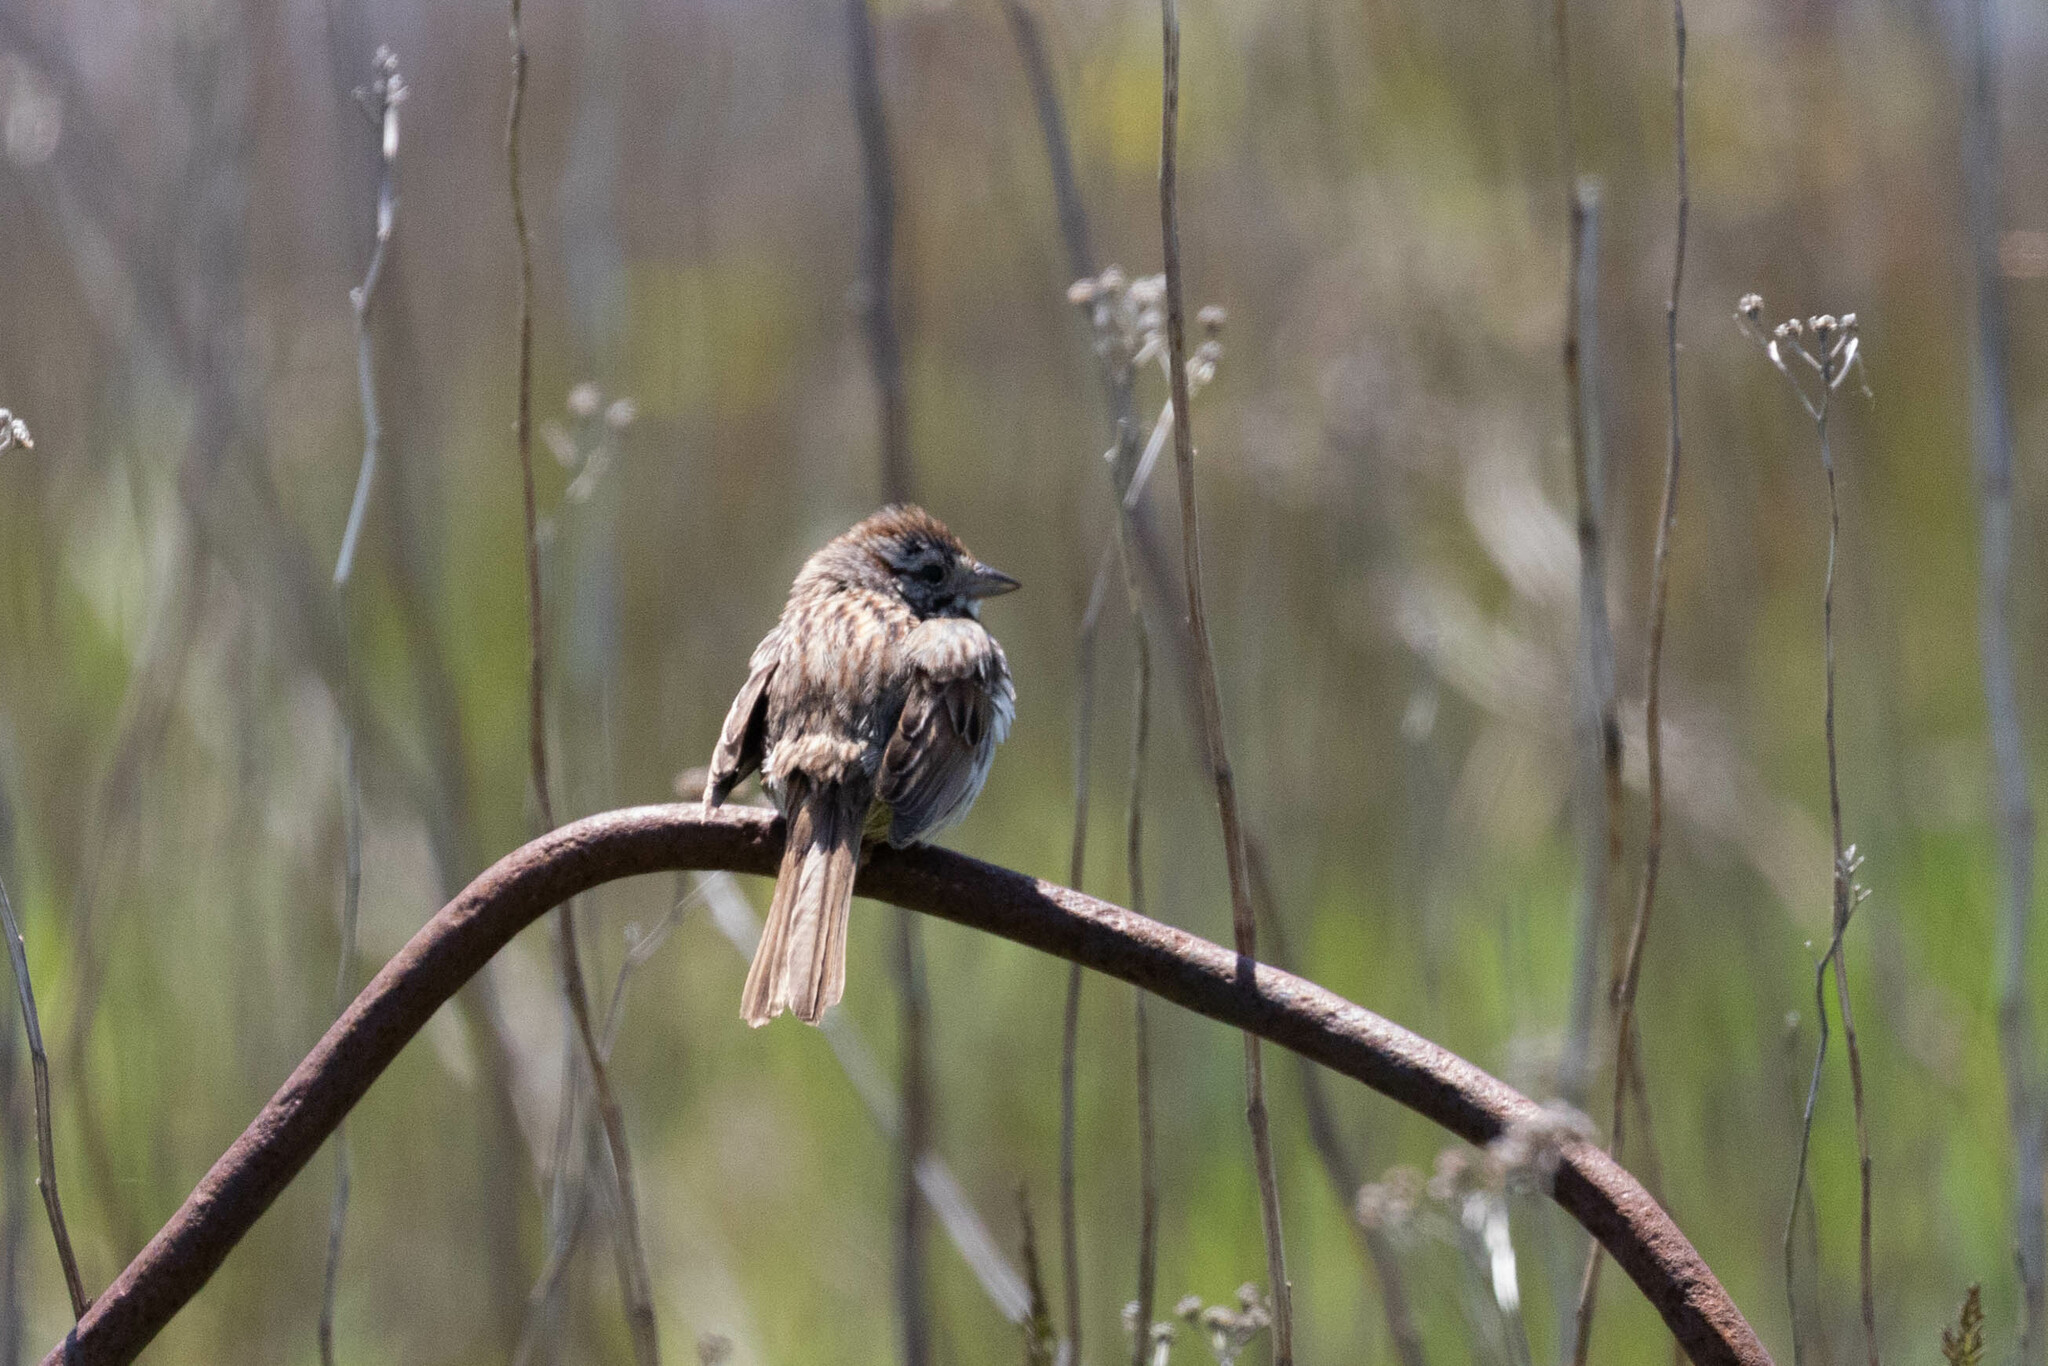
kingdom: Animalia
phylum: Chordata
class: Aves
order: Passeriformes
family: Passerellidae
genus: Melospiza
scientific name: Melospiza melodia
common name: Song sparrow
